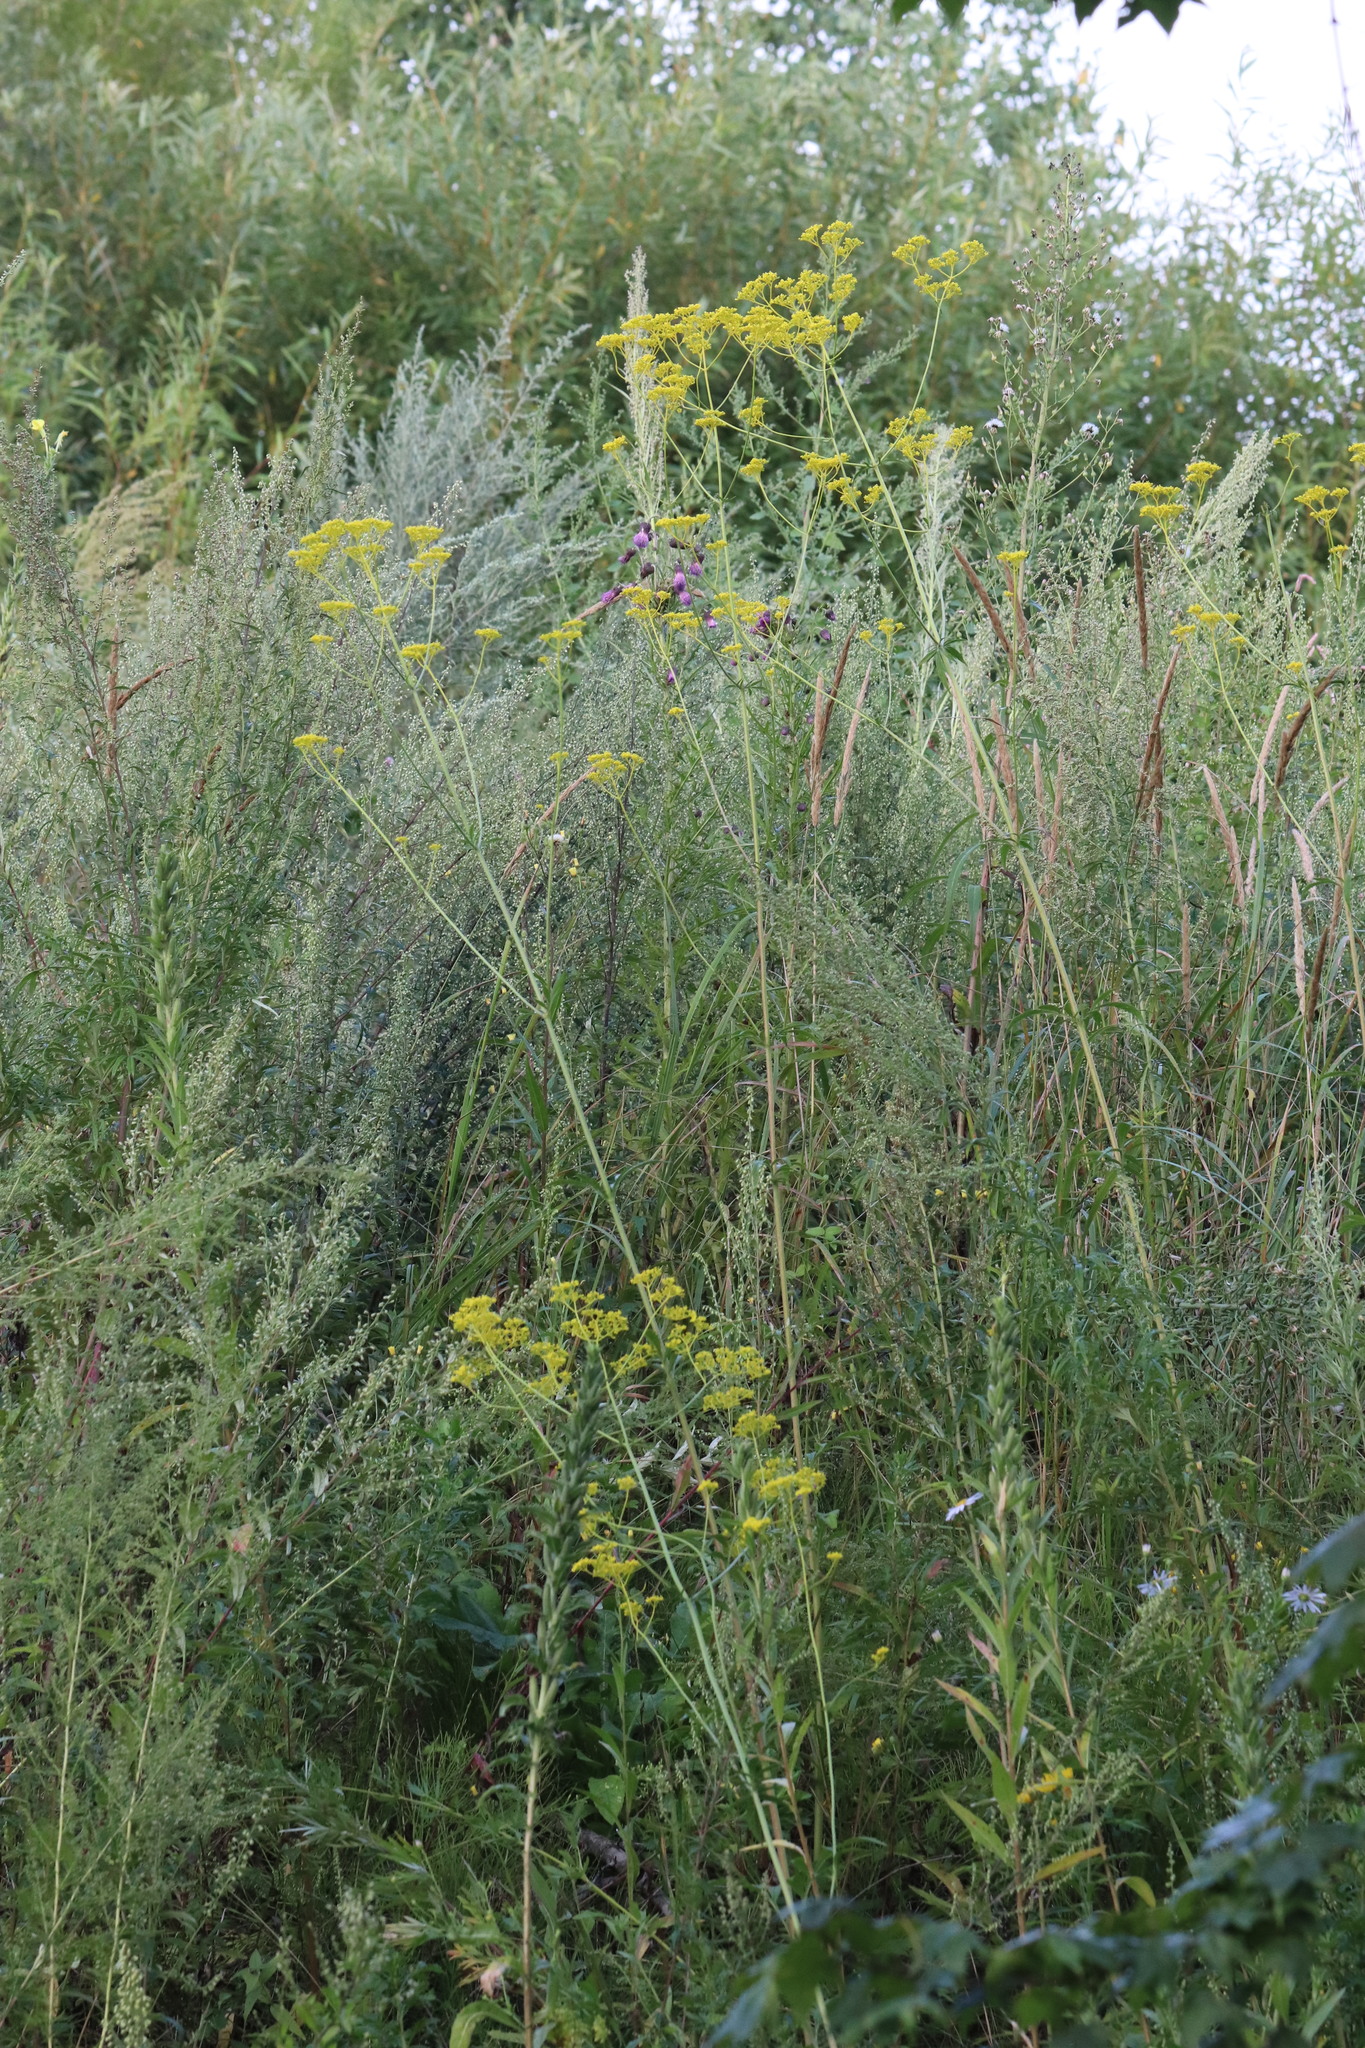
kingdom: Plantae
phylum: Tracheophyta
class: Magnoliopsida
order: Dipsacales
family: Caprifoliaceae
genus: Patrinia
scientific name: Patrinia scabiosifolia
